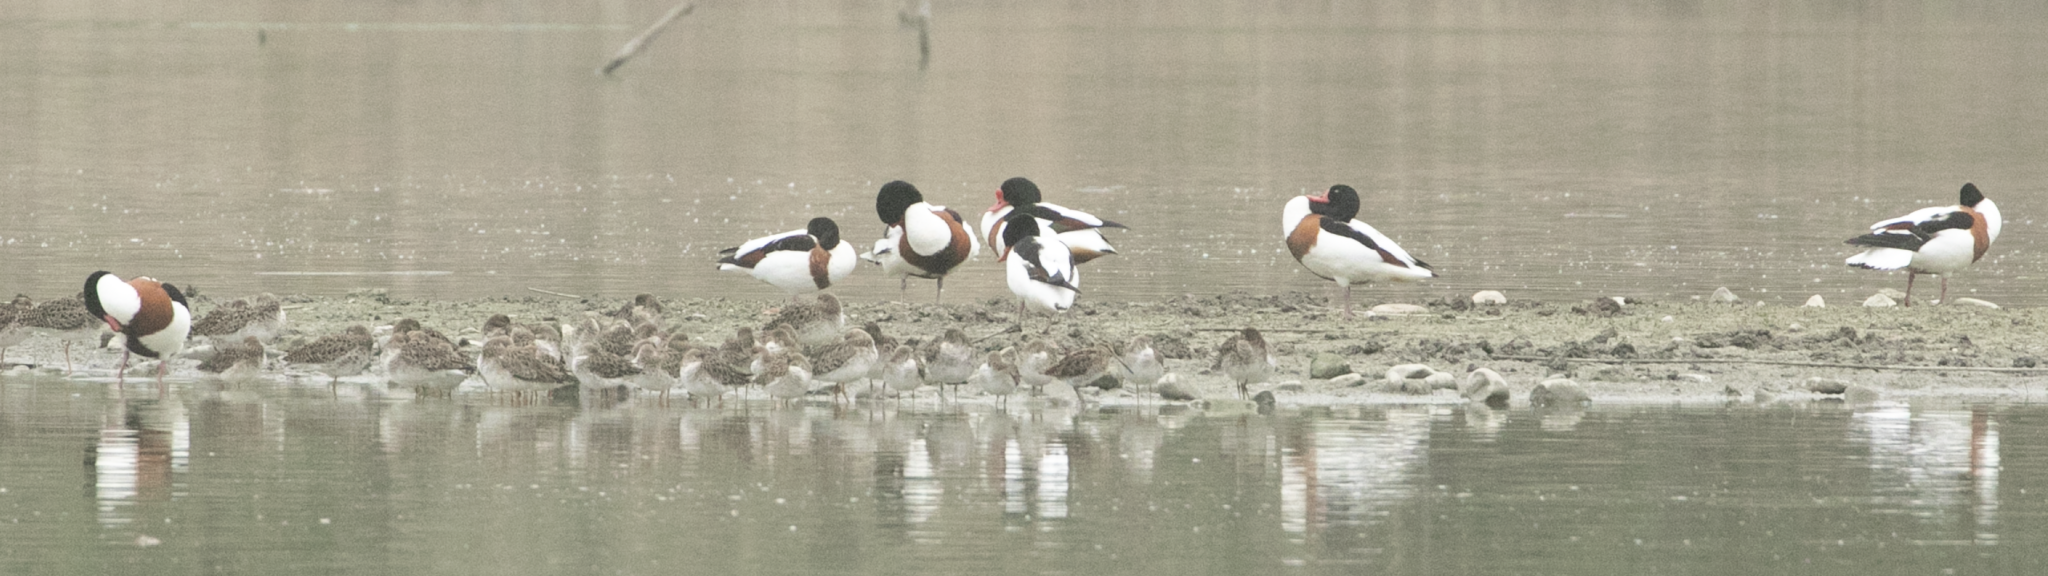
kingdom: Animalia
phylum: Chordata
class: Aves
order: Anseriformes
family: Anatidae
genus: Tadorna
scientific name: Tadorna tadorna
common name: Common shelduck
